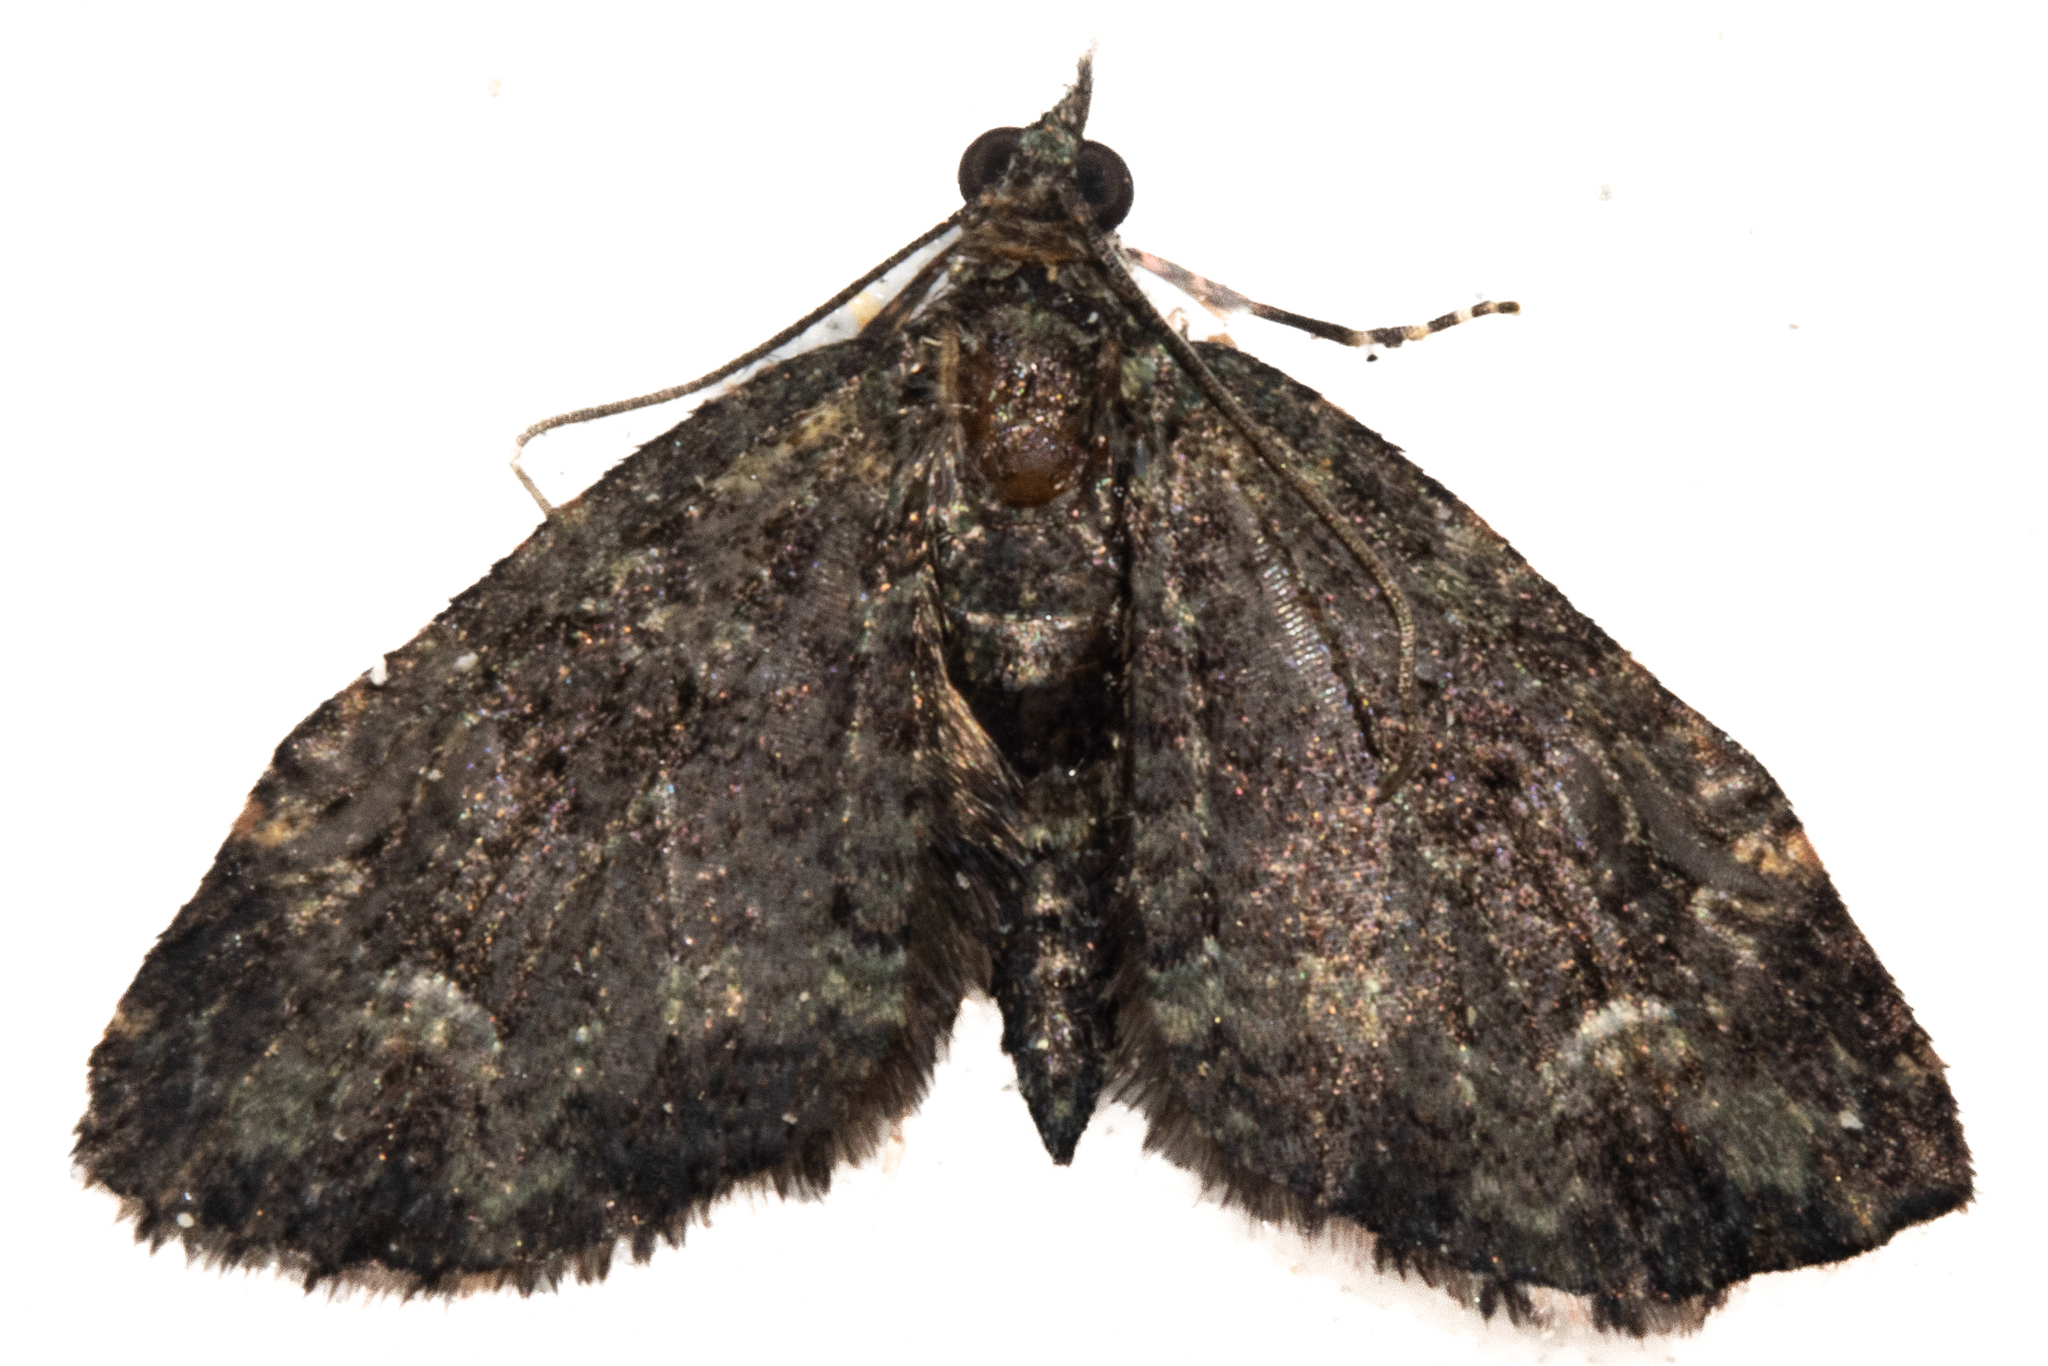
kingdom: Animalia
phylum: Arthropoda
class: Insecta
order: Lepidoptera
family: Geometridae
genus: Pasiphilodes
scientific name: Pasiphilodes testulata
